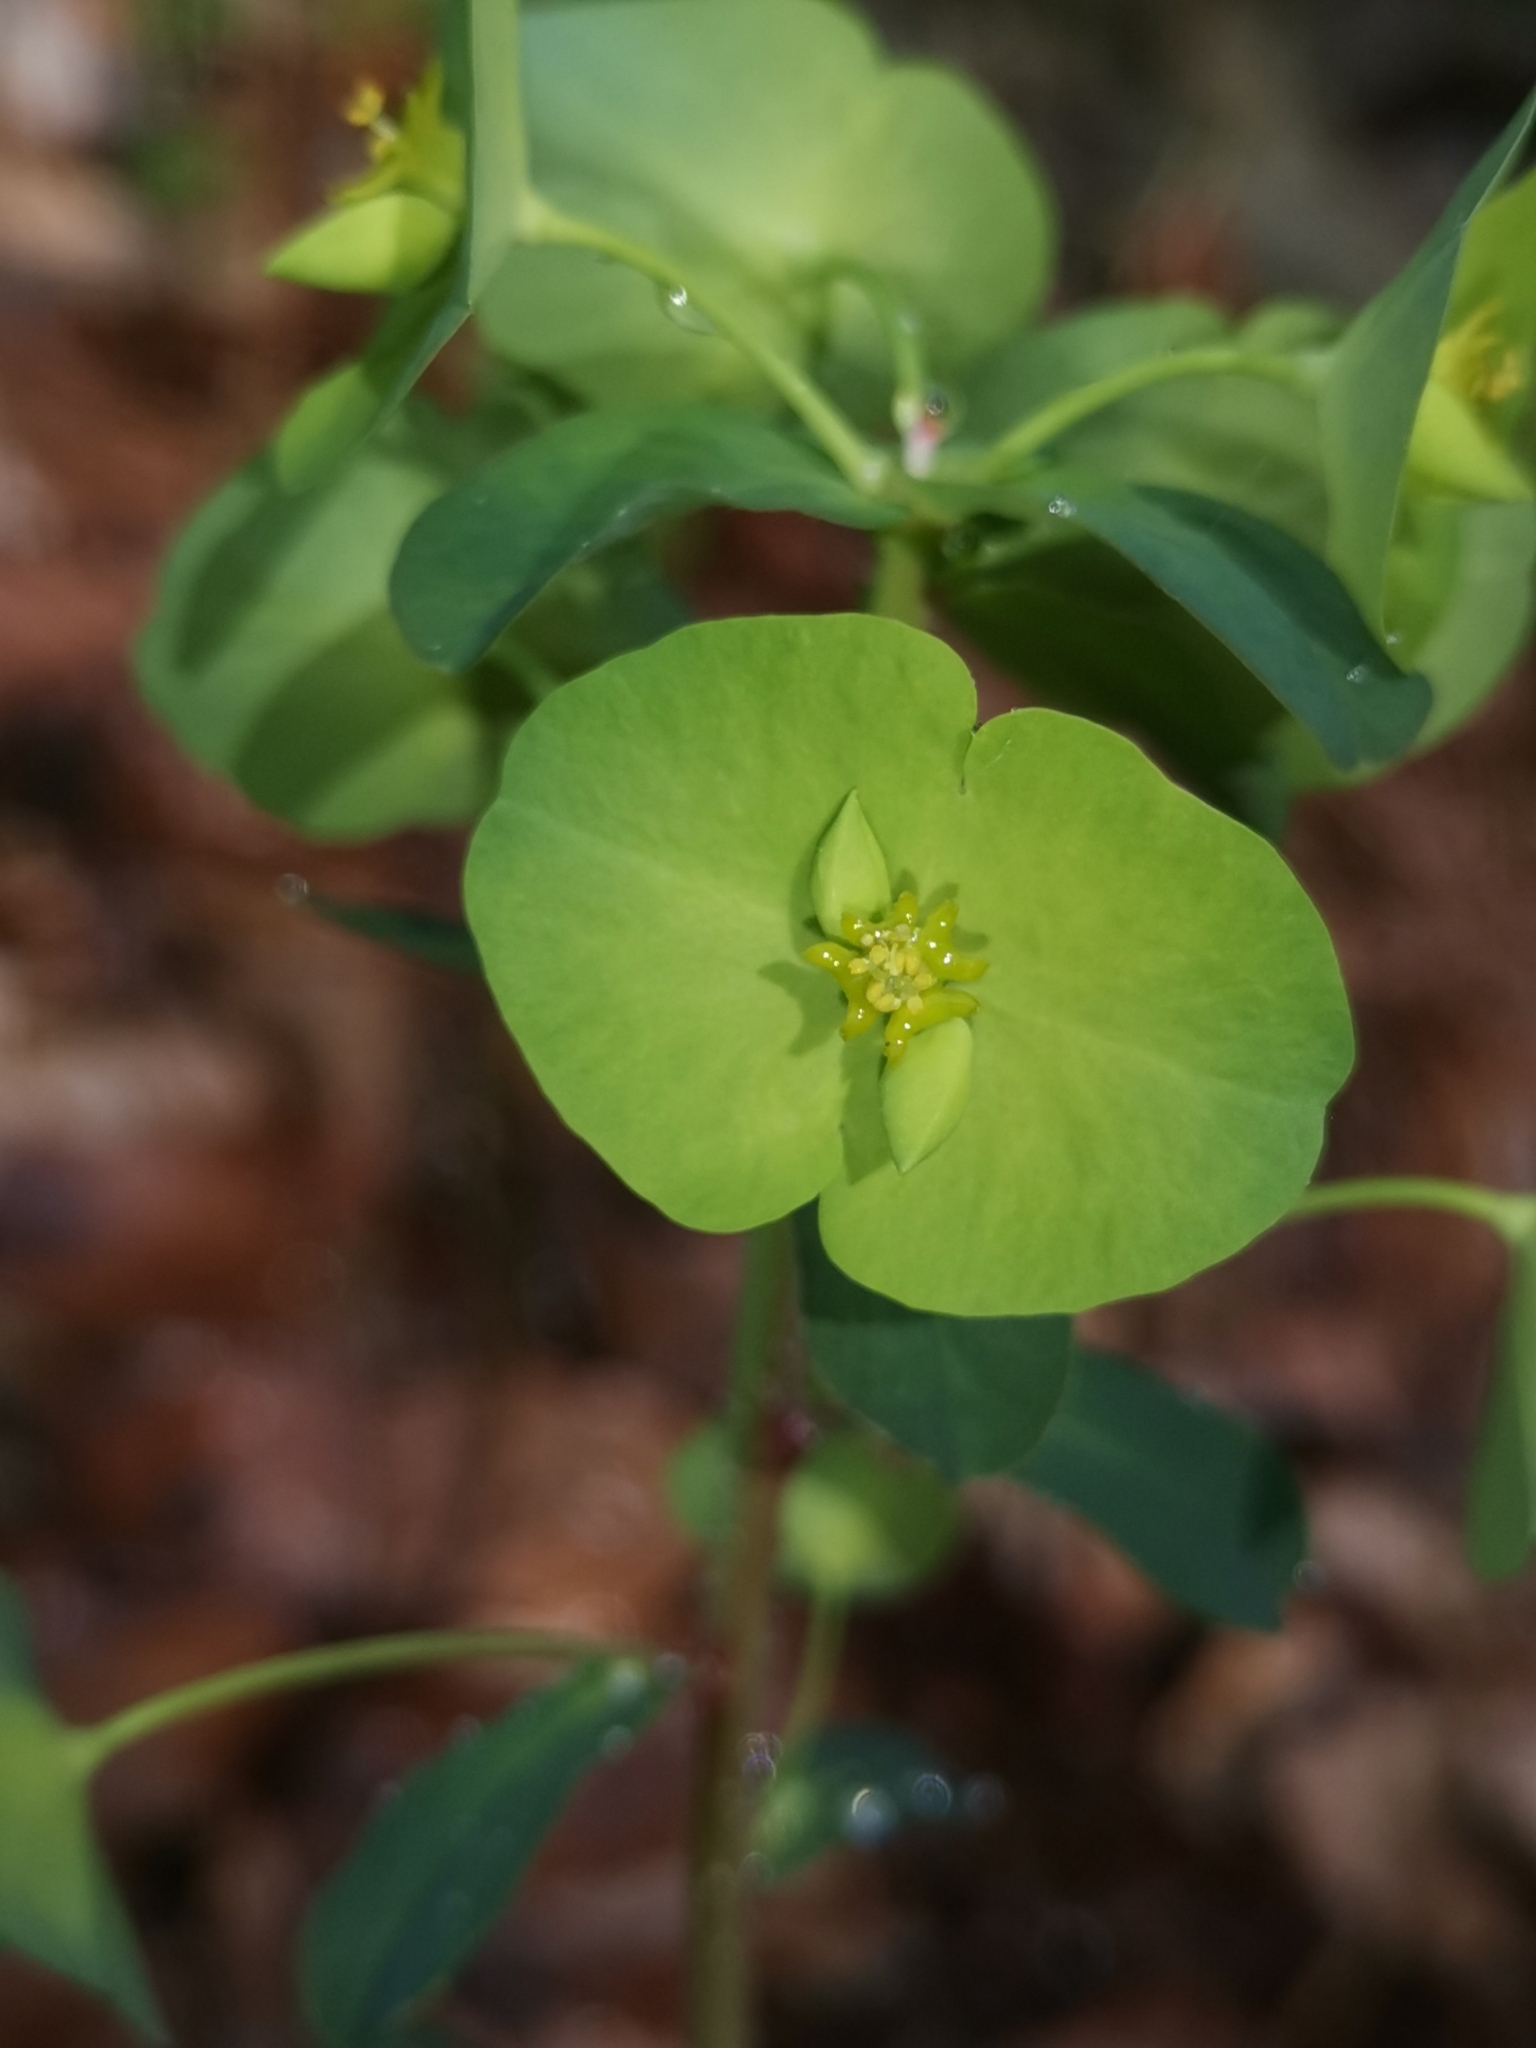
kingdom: Plantae
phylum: Tracheophyta
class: Magnoliopsida
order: Malpighiales
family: Euphorbiaceae
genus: Euphorbia
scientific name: Euphorbia amygdaloides
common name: Wood spurge
